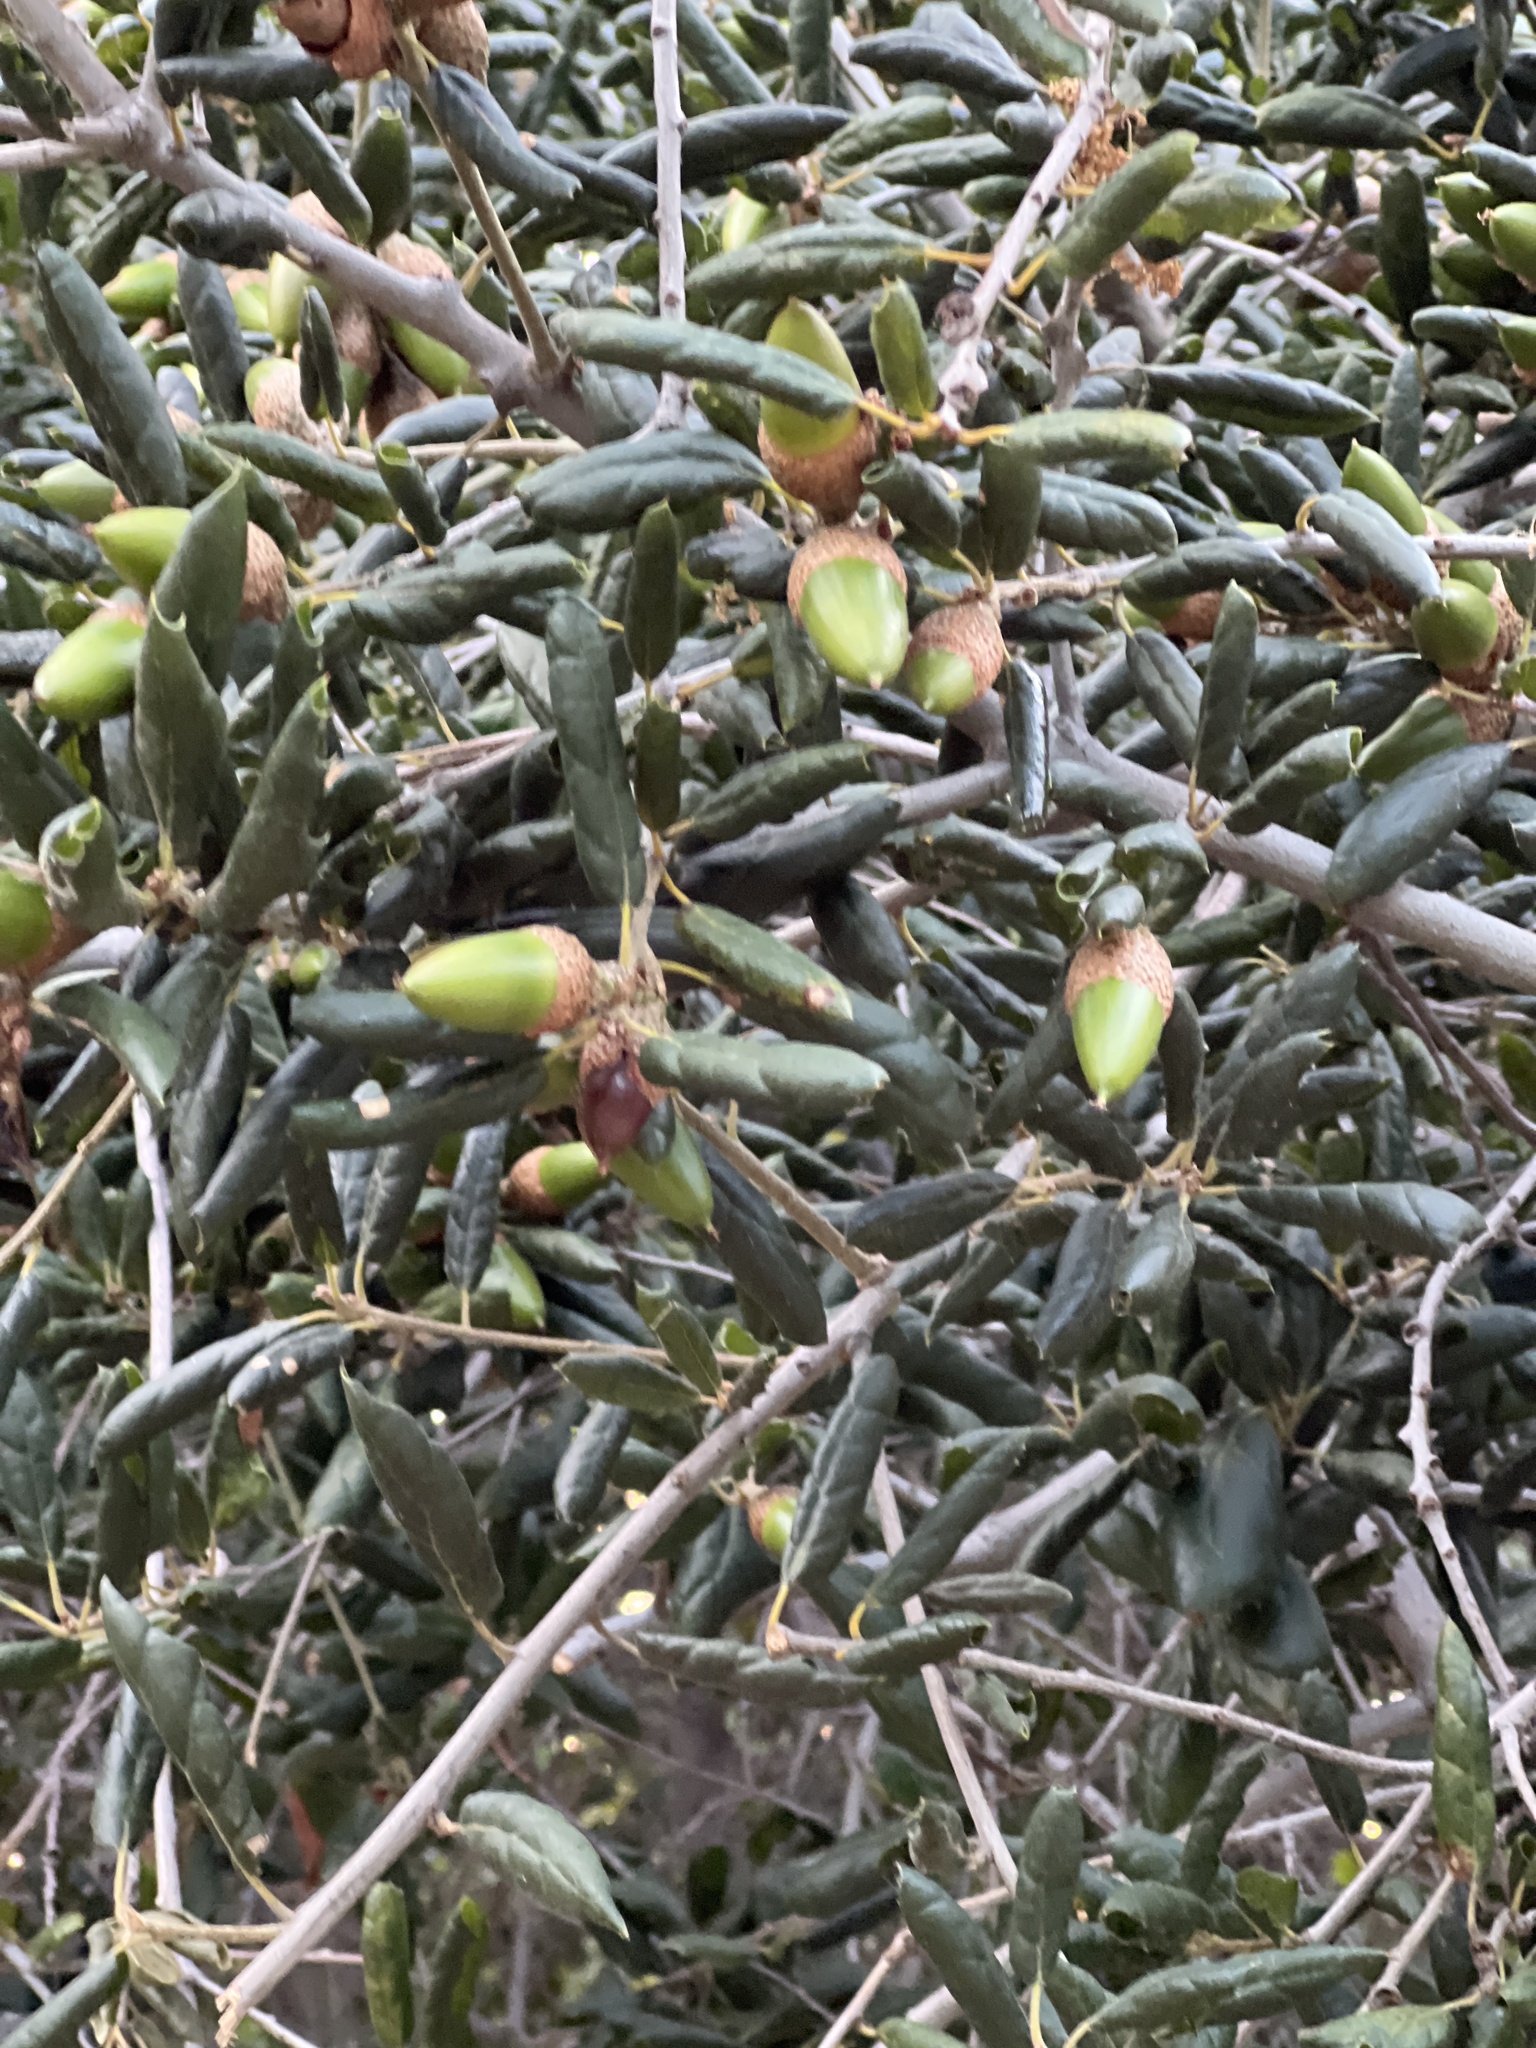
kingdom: Plantae
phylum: Tracheophyta
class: Magnoliopsida
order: Fagales
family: Fagaceae
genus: Quercus
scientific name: Quercus agrifolia
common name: California live oak
